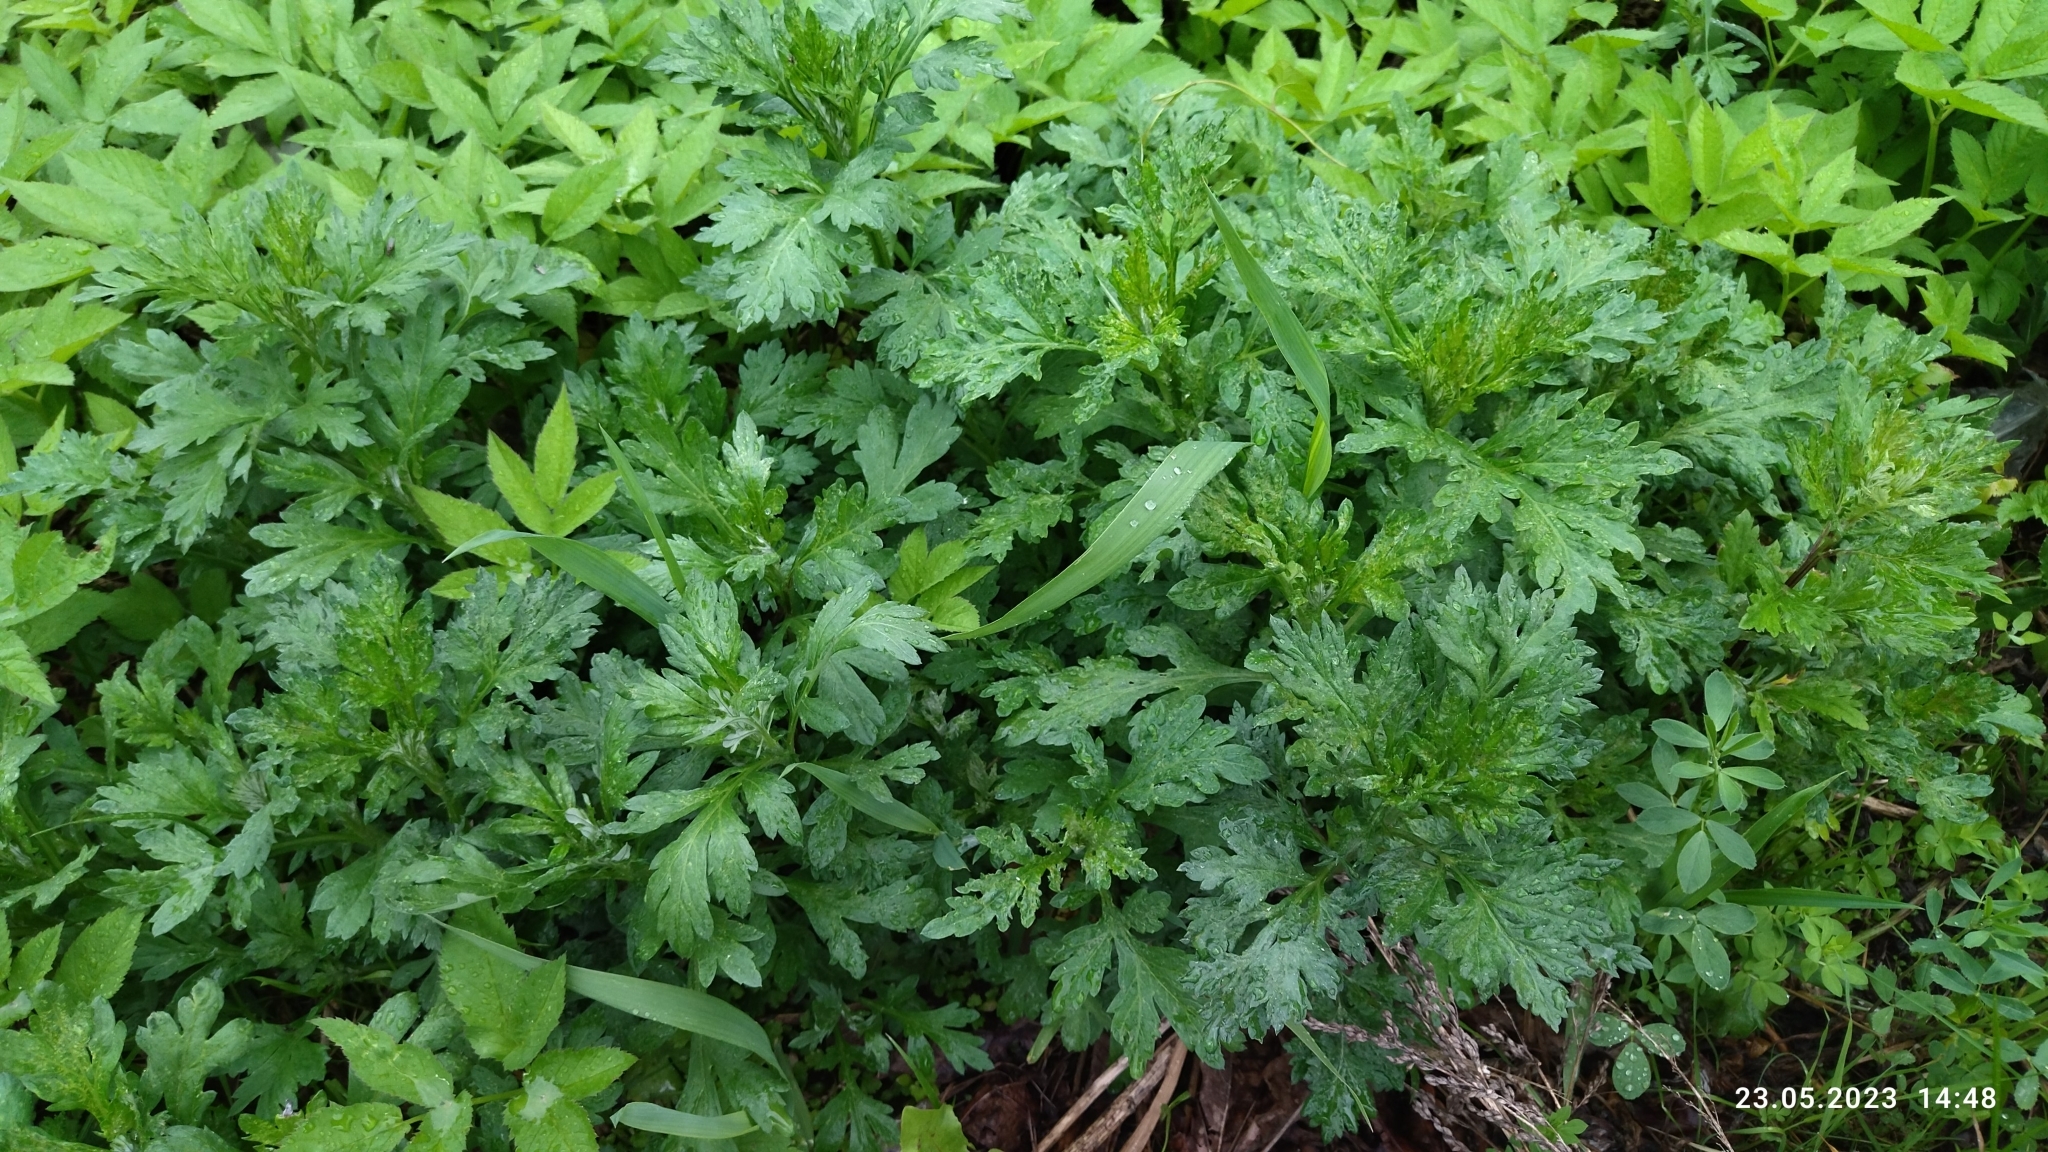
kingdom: Plantae
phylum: Tracheophyta
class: Magnoliopsida
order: Asterales
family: Asteraceae
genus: Artemisia
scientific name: Artemisia vulgaris
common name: Mugwort
